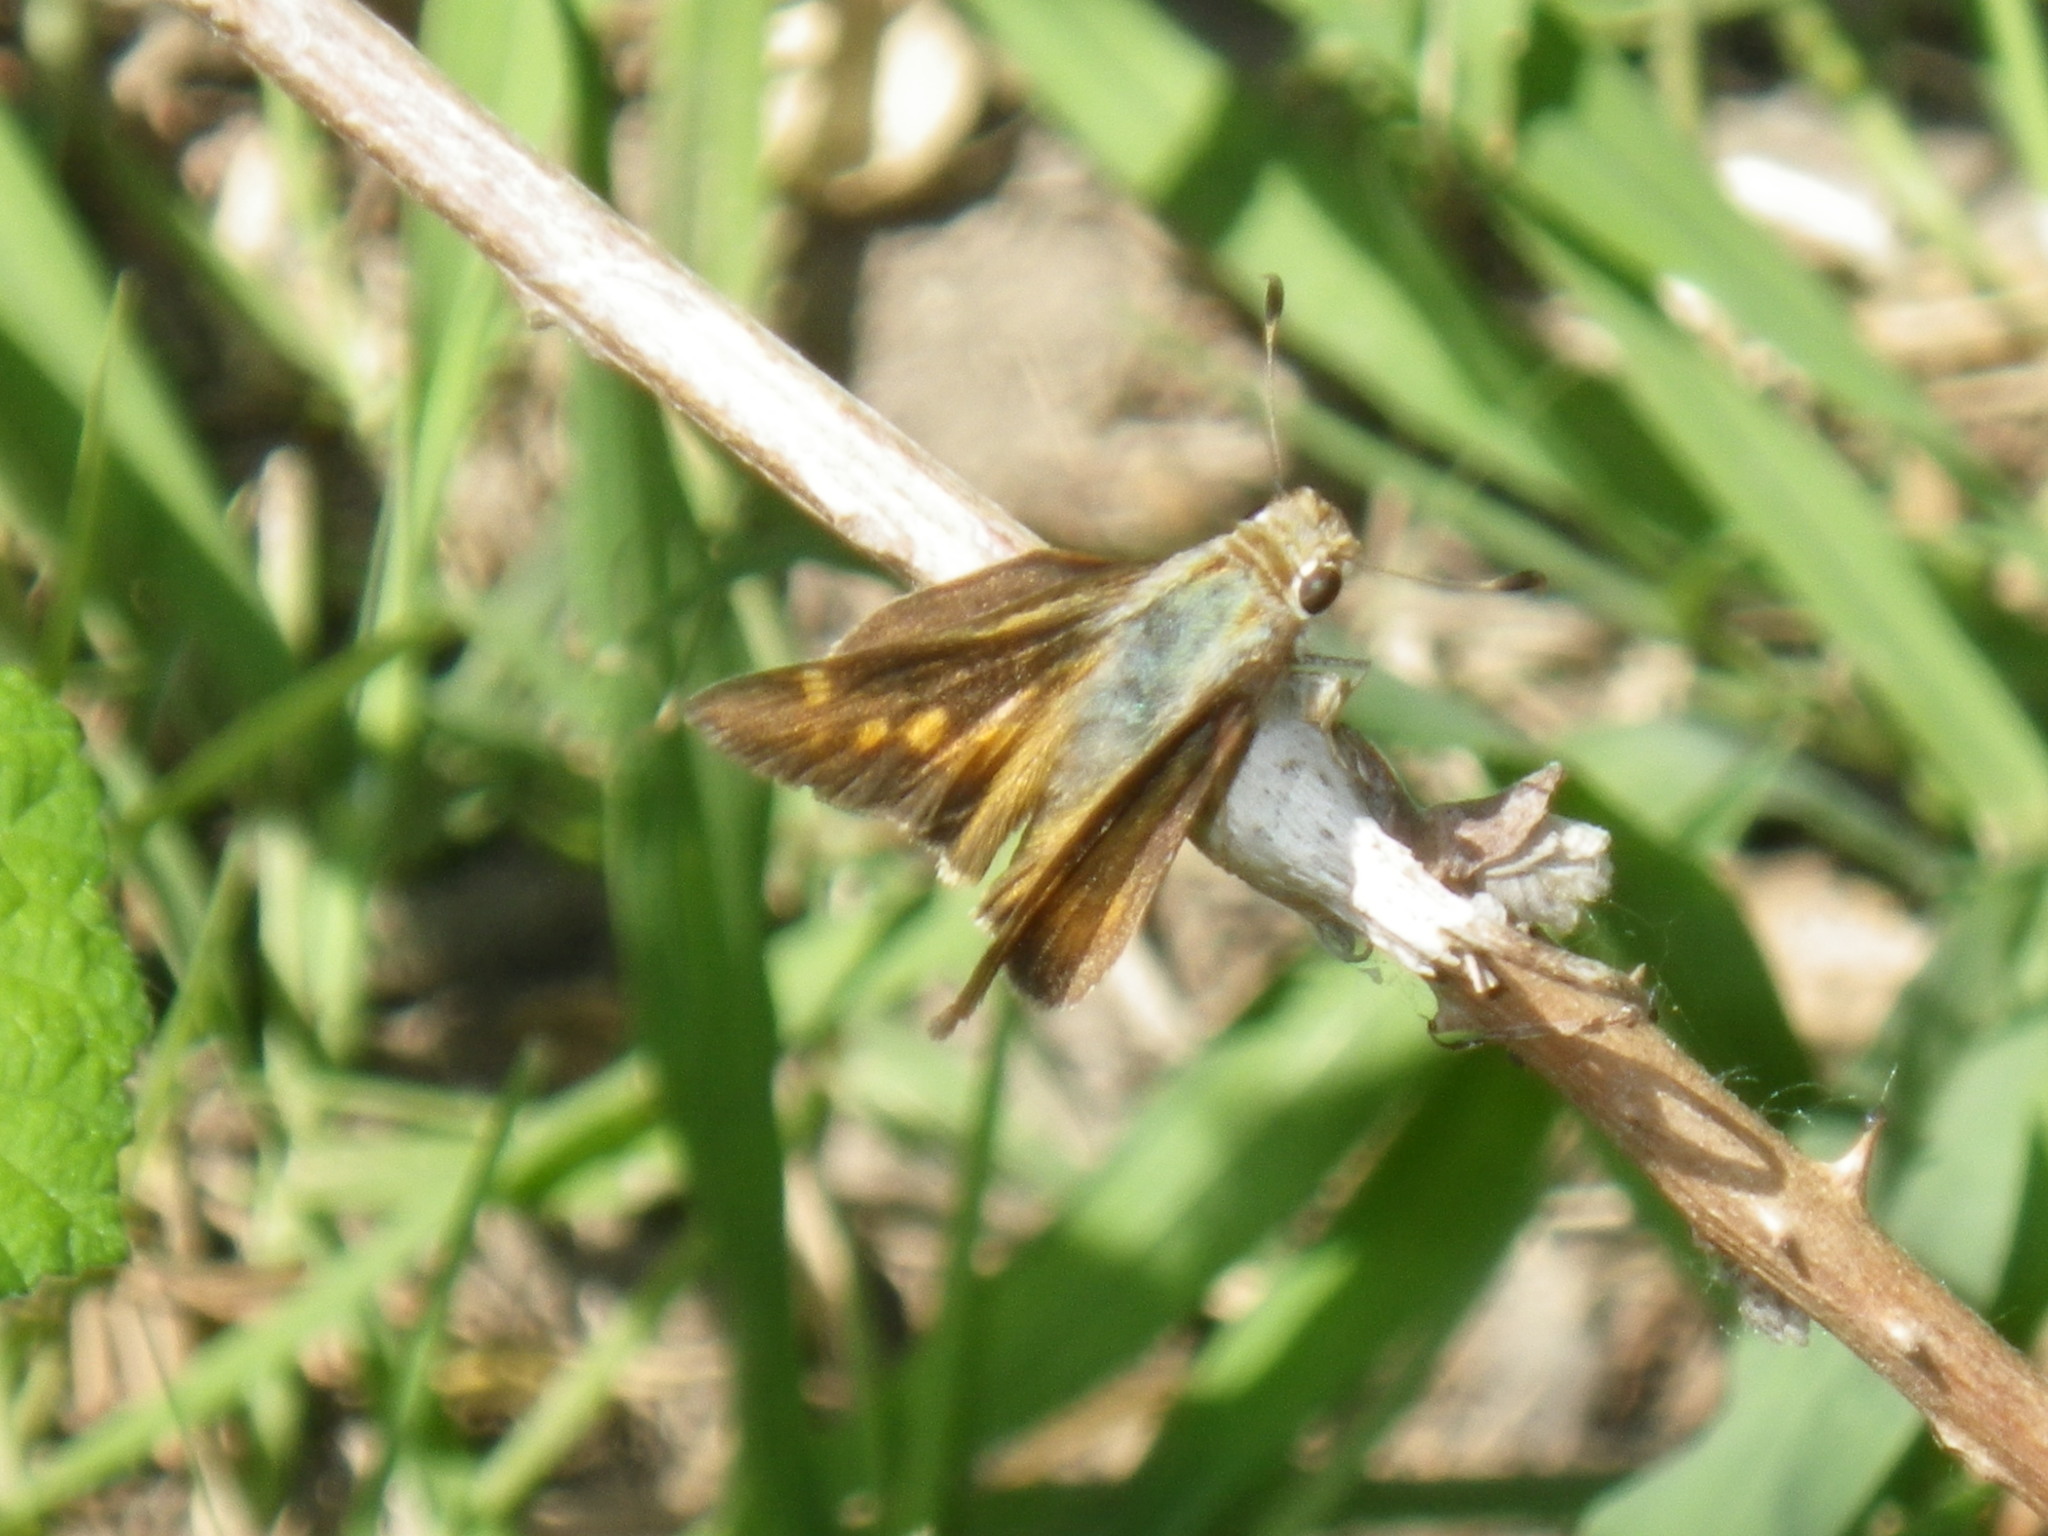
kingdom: Animalia
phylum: Arthropoda
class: Insecta
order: Lepidoptera
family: Hesperiidae
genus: Lon
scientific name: Lon melane
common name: Umber skipper
